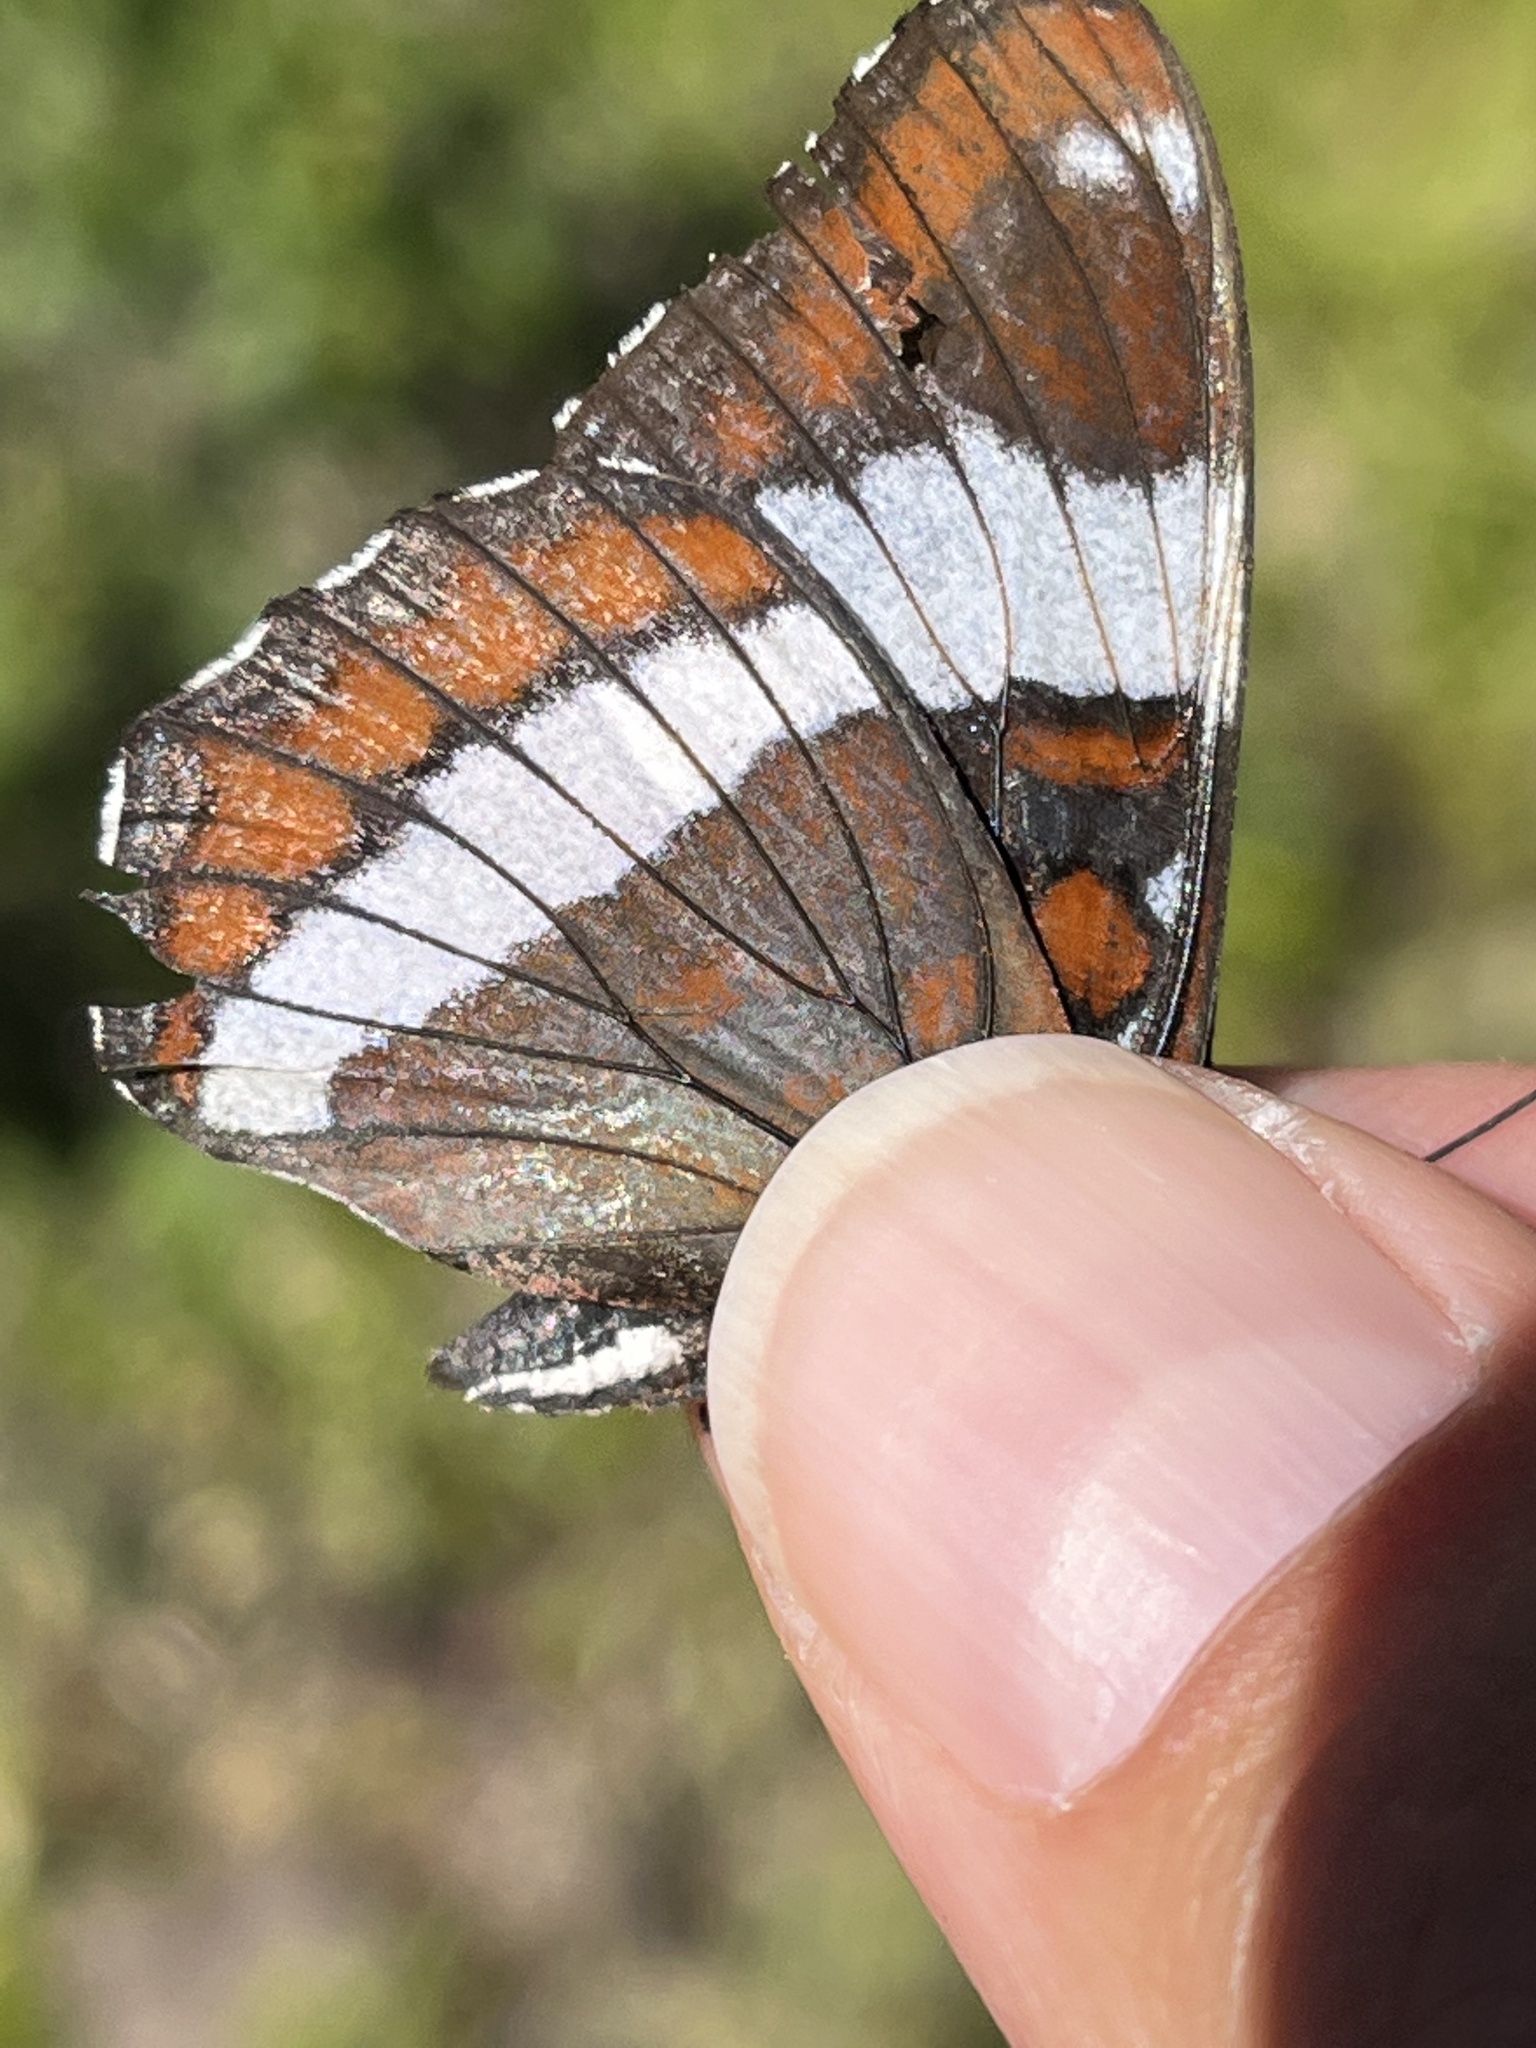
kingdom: Animalia
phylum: Arthropoda
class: Insecta
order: Lepidoptera
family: Nymphalidae
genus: Limenitis
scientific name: Limenitis arthemis
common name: Red-spotted admiral
